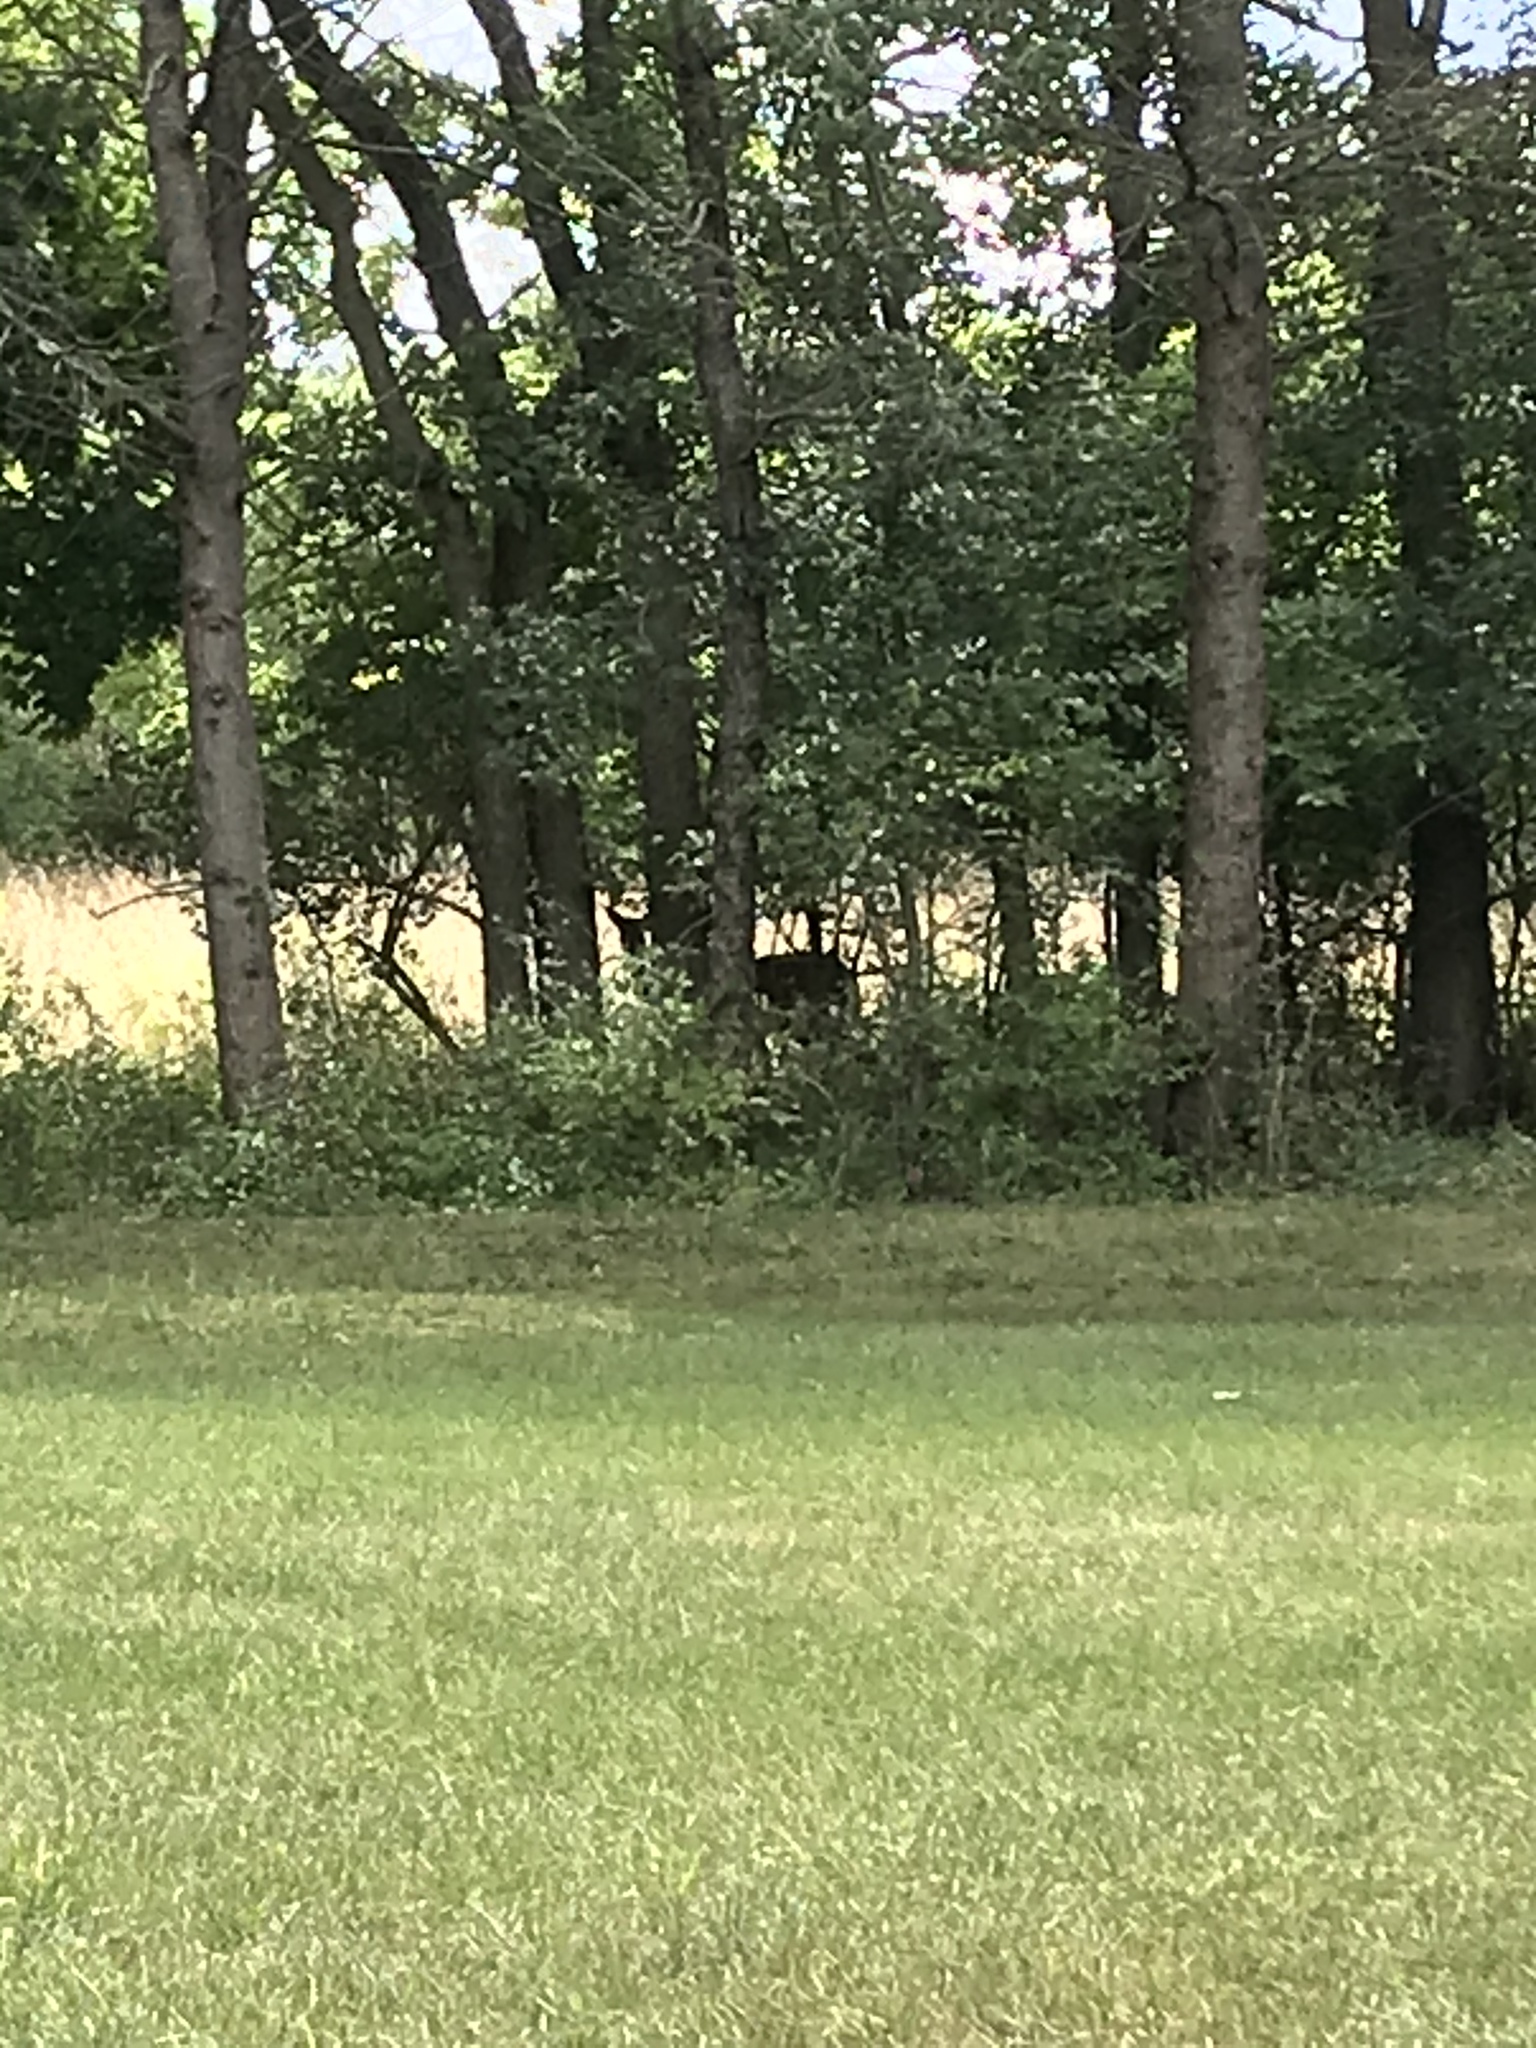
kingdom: Animalia
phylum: Chordata
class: Mammalia
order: Artiodactyla
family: Cervidae
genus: Odocoileus
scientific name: Odocoileus virginianus
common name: White-tailed deer
